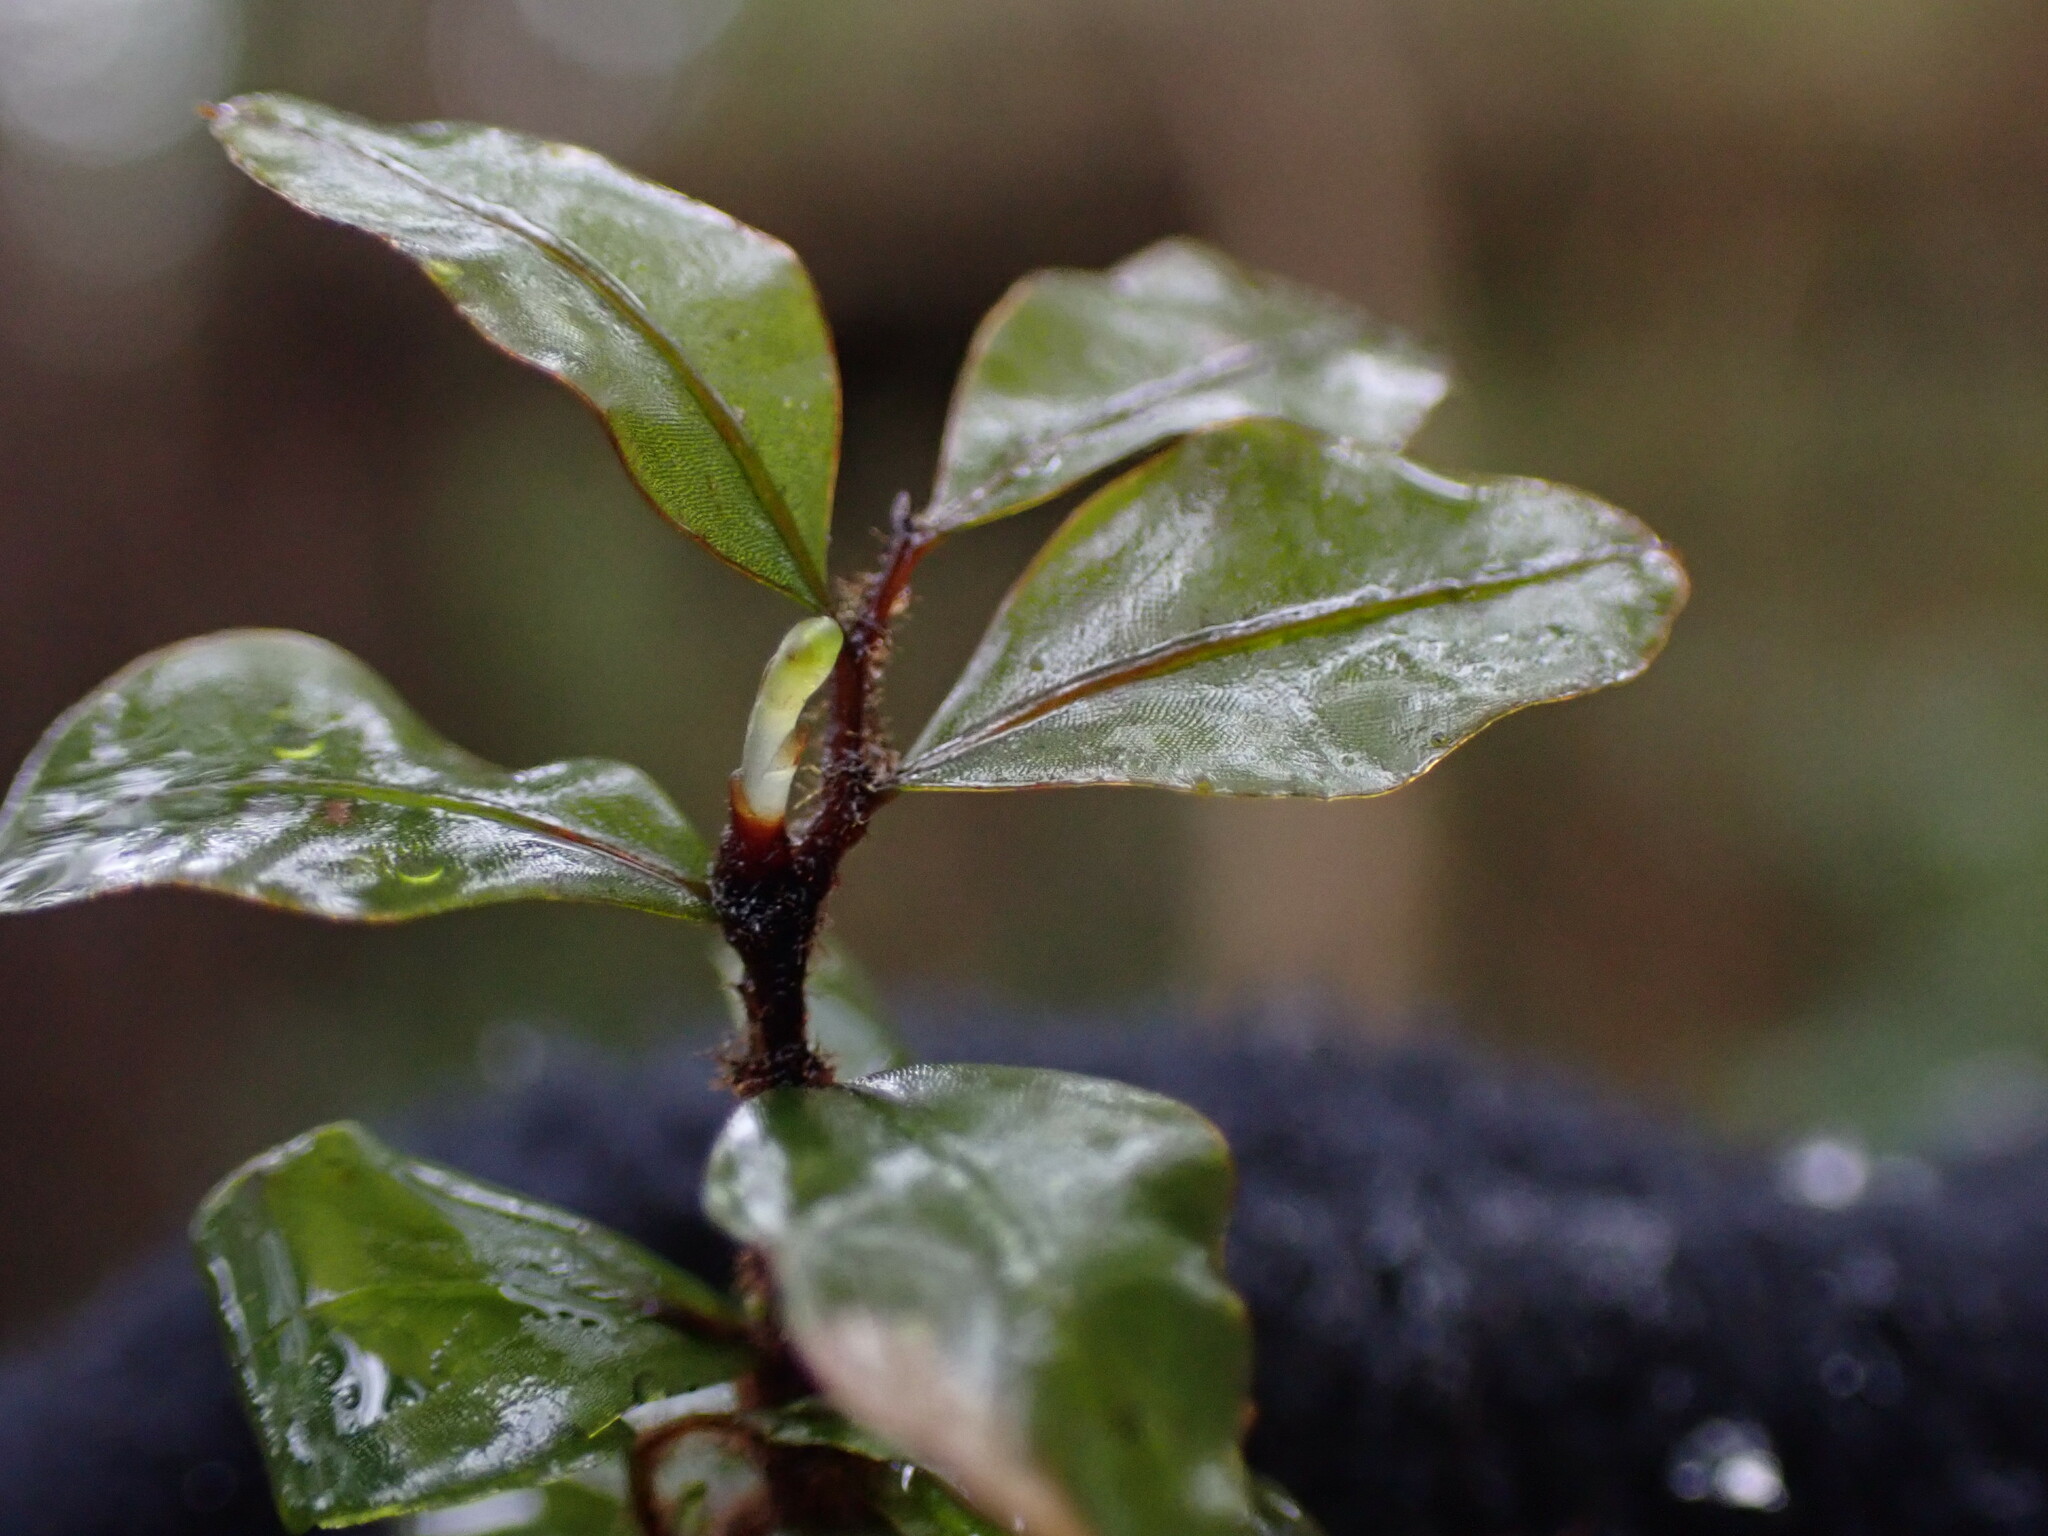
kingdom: Plantae
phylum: Bryophyta
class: Bryopsida
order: Bryales
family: Mniaceae
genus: Rhizomnium
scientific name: Rhizomnium magnifolium
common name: Large-leaved leafy moss
